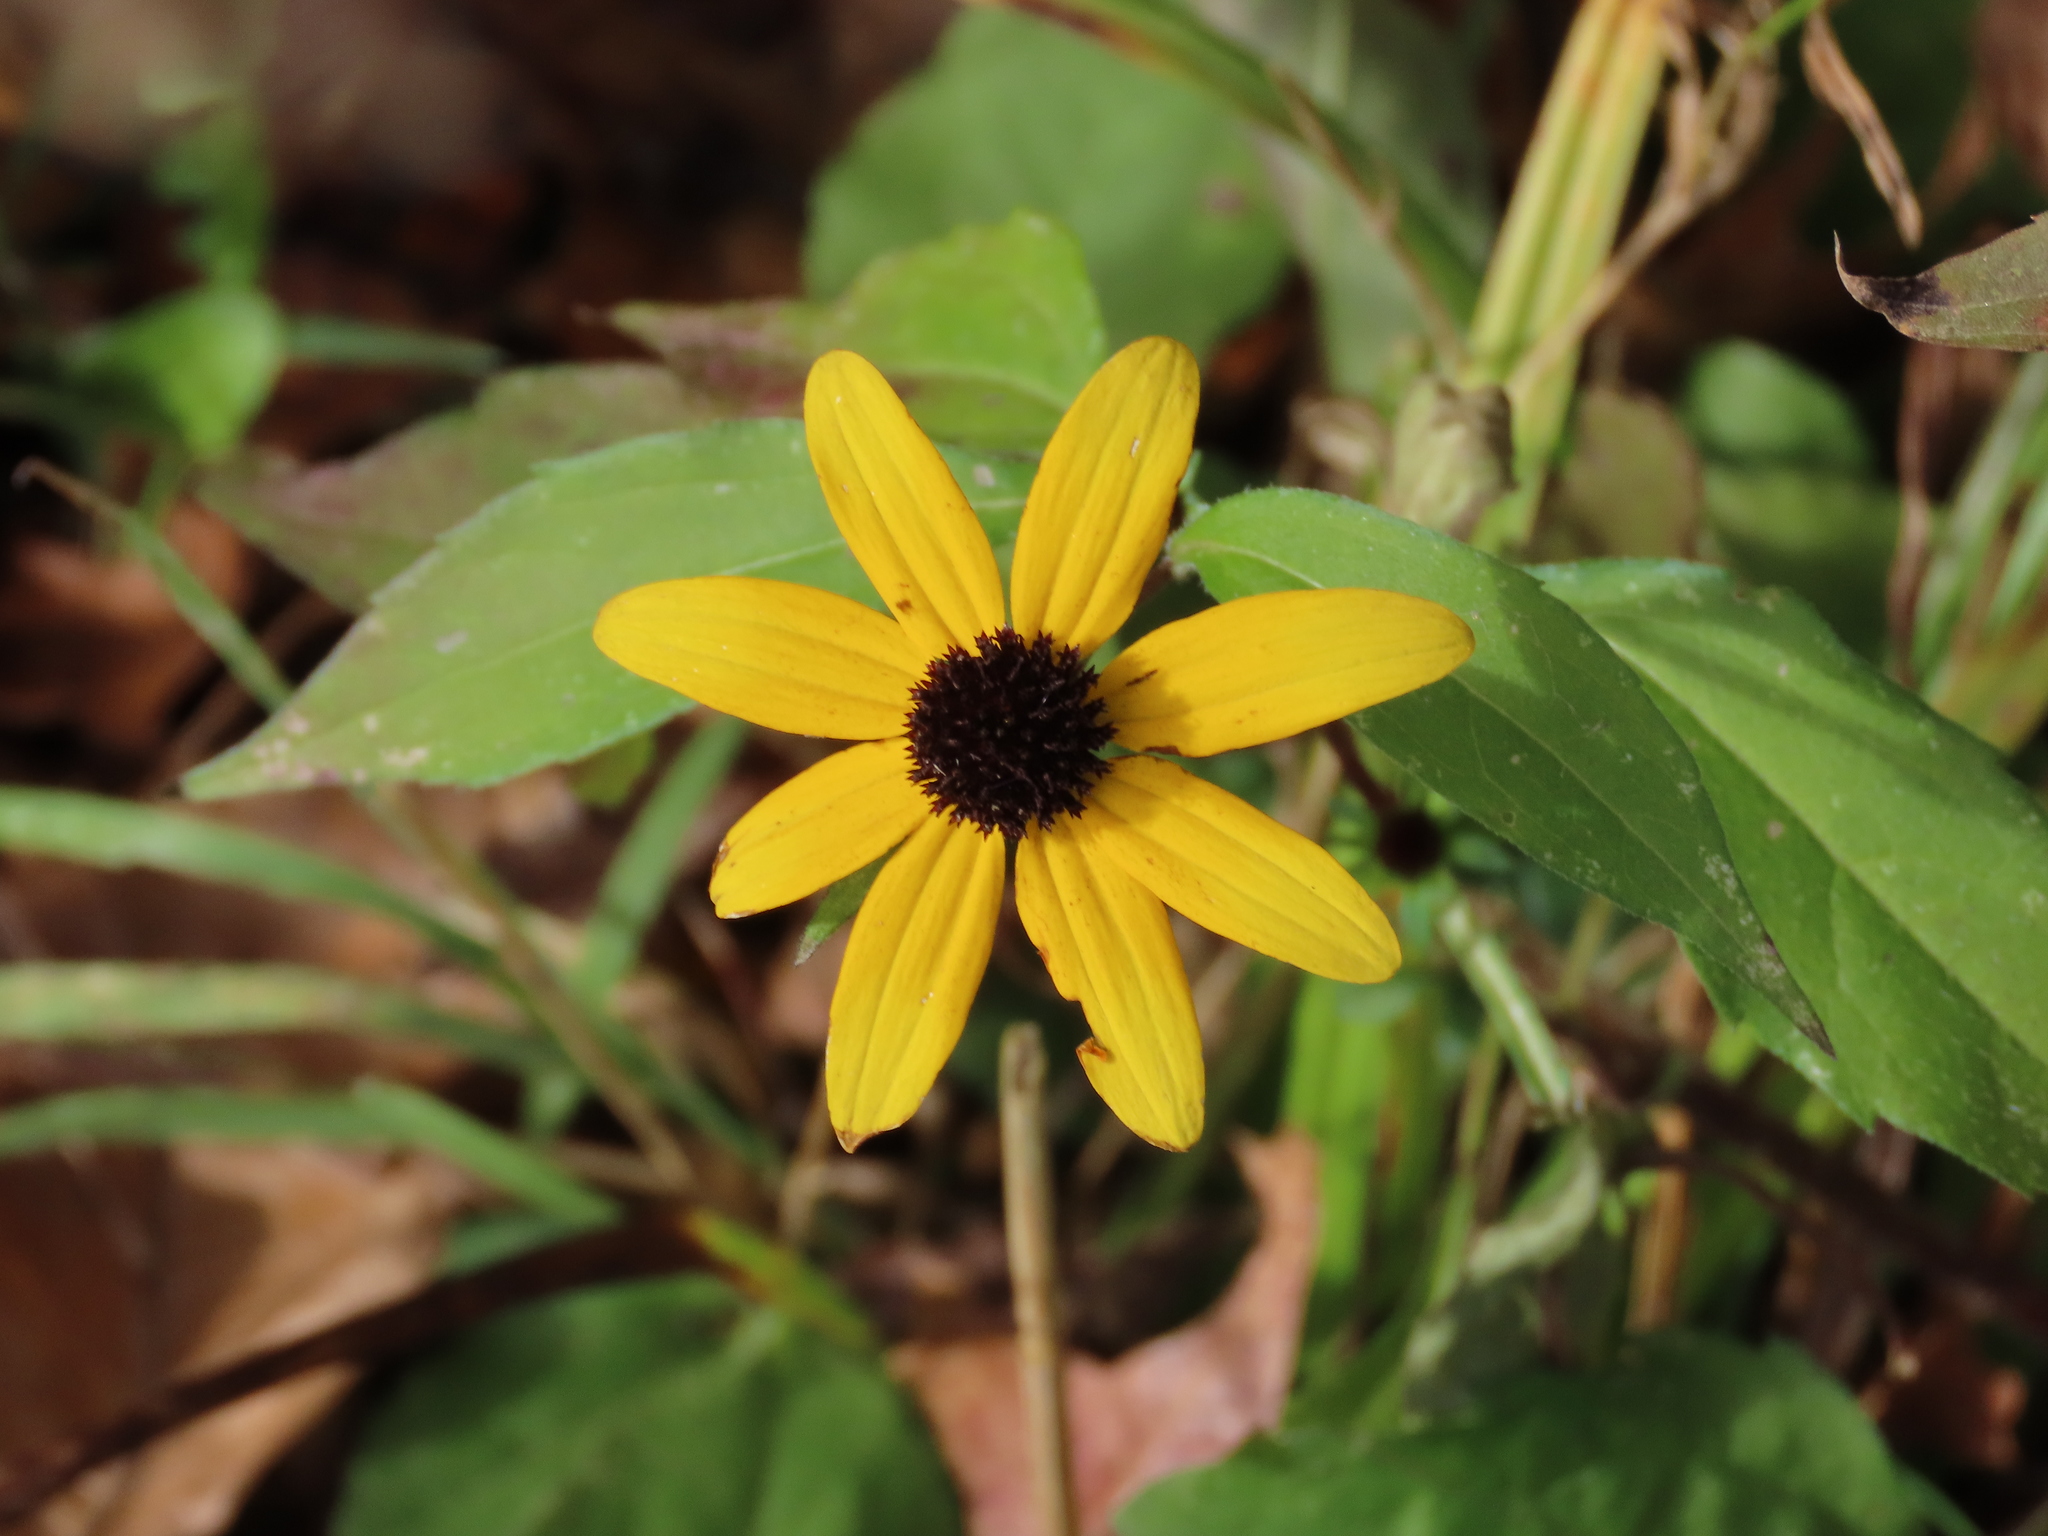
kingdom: Plantae
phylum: Tracheophyta
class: Magnoliopsida
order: Asterales
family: Asteraceae
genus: Rudbeckia
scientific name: Rudbeckia triloba
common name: Thin-leaved coneflower
